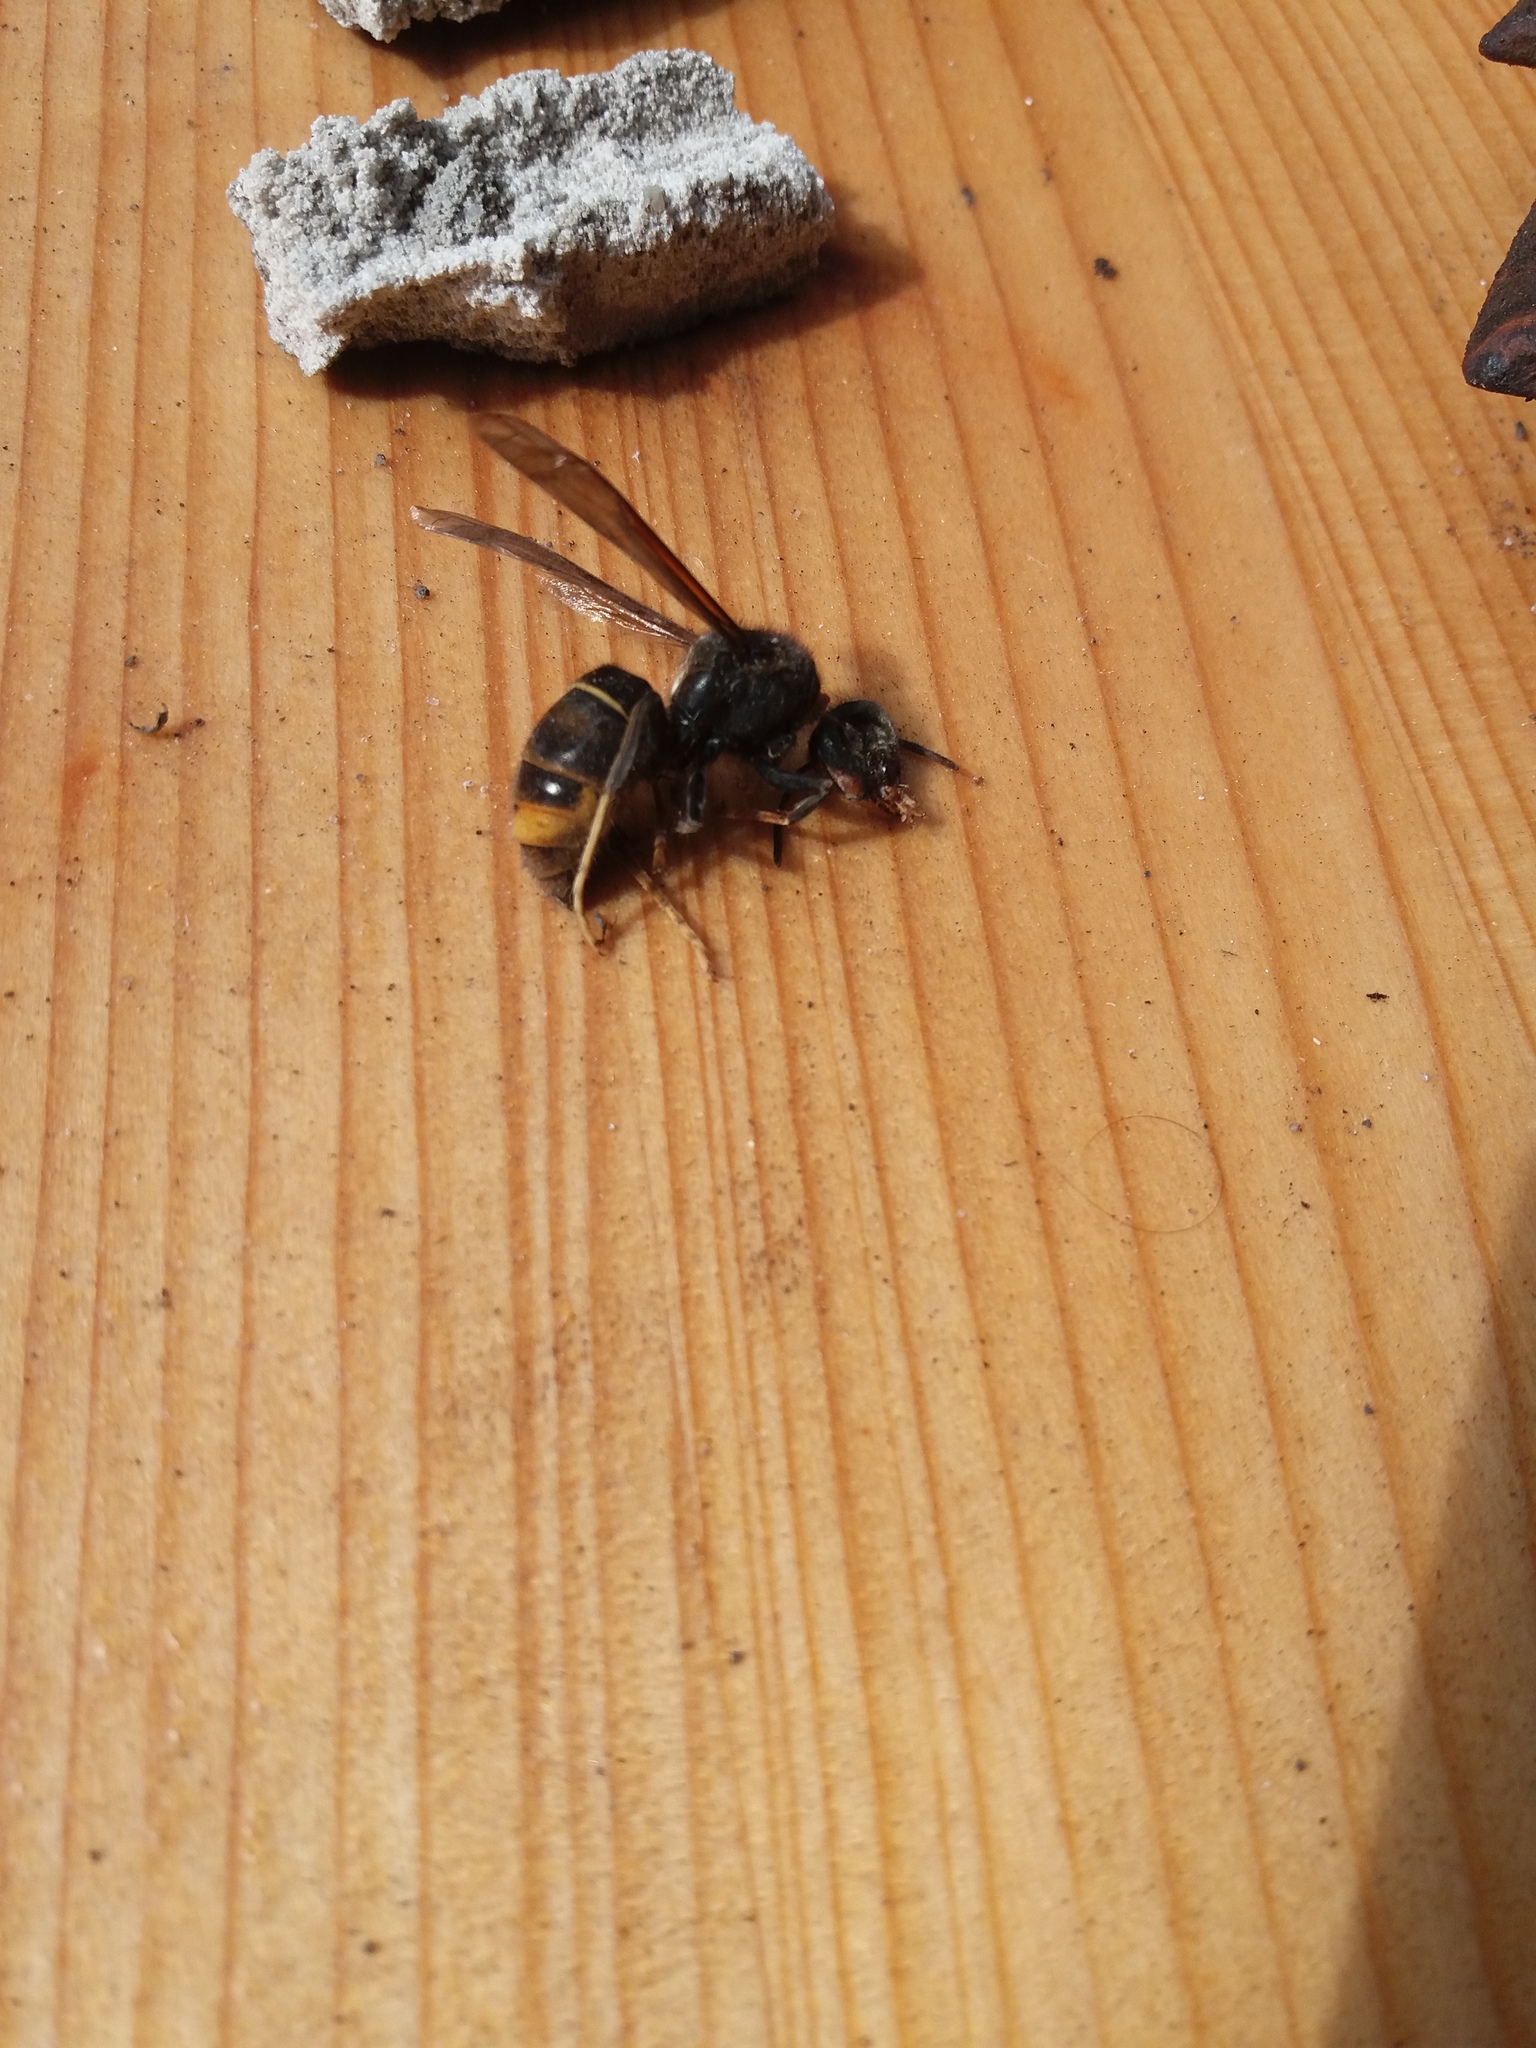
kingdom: Animalia
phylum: Arthropoda
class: Insecta
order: Hymenoptera
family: Vespidae
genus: Vespa
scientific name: Vespa velutina
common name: Asian hornet
